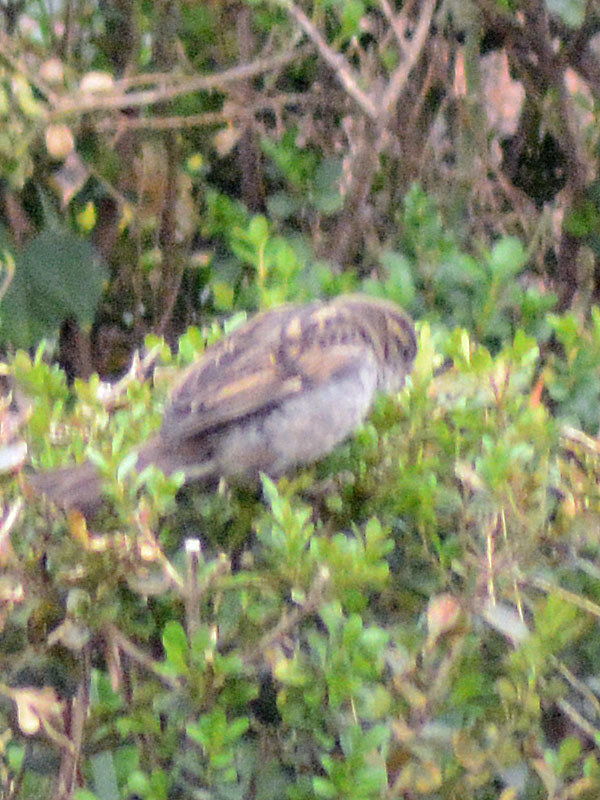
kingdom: Animalia
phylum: Chordata
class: Aves
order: Passeriformes
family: Passeridae
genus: Passer
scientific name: Passer domesticus
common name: House sparrow
